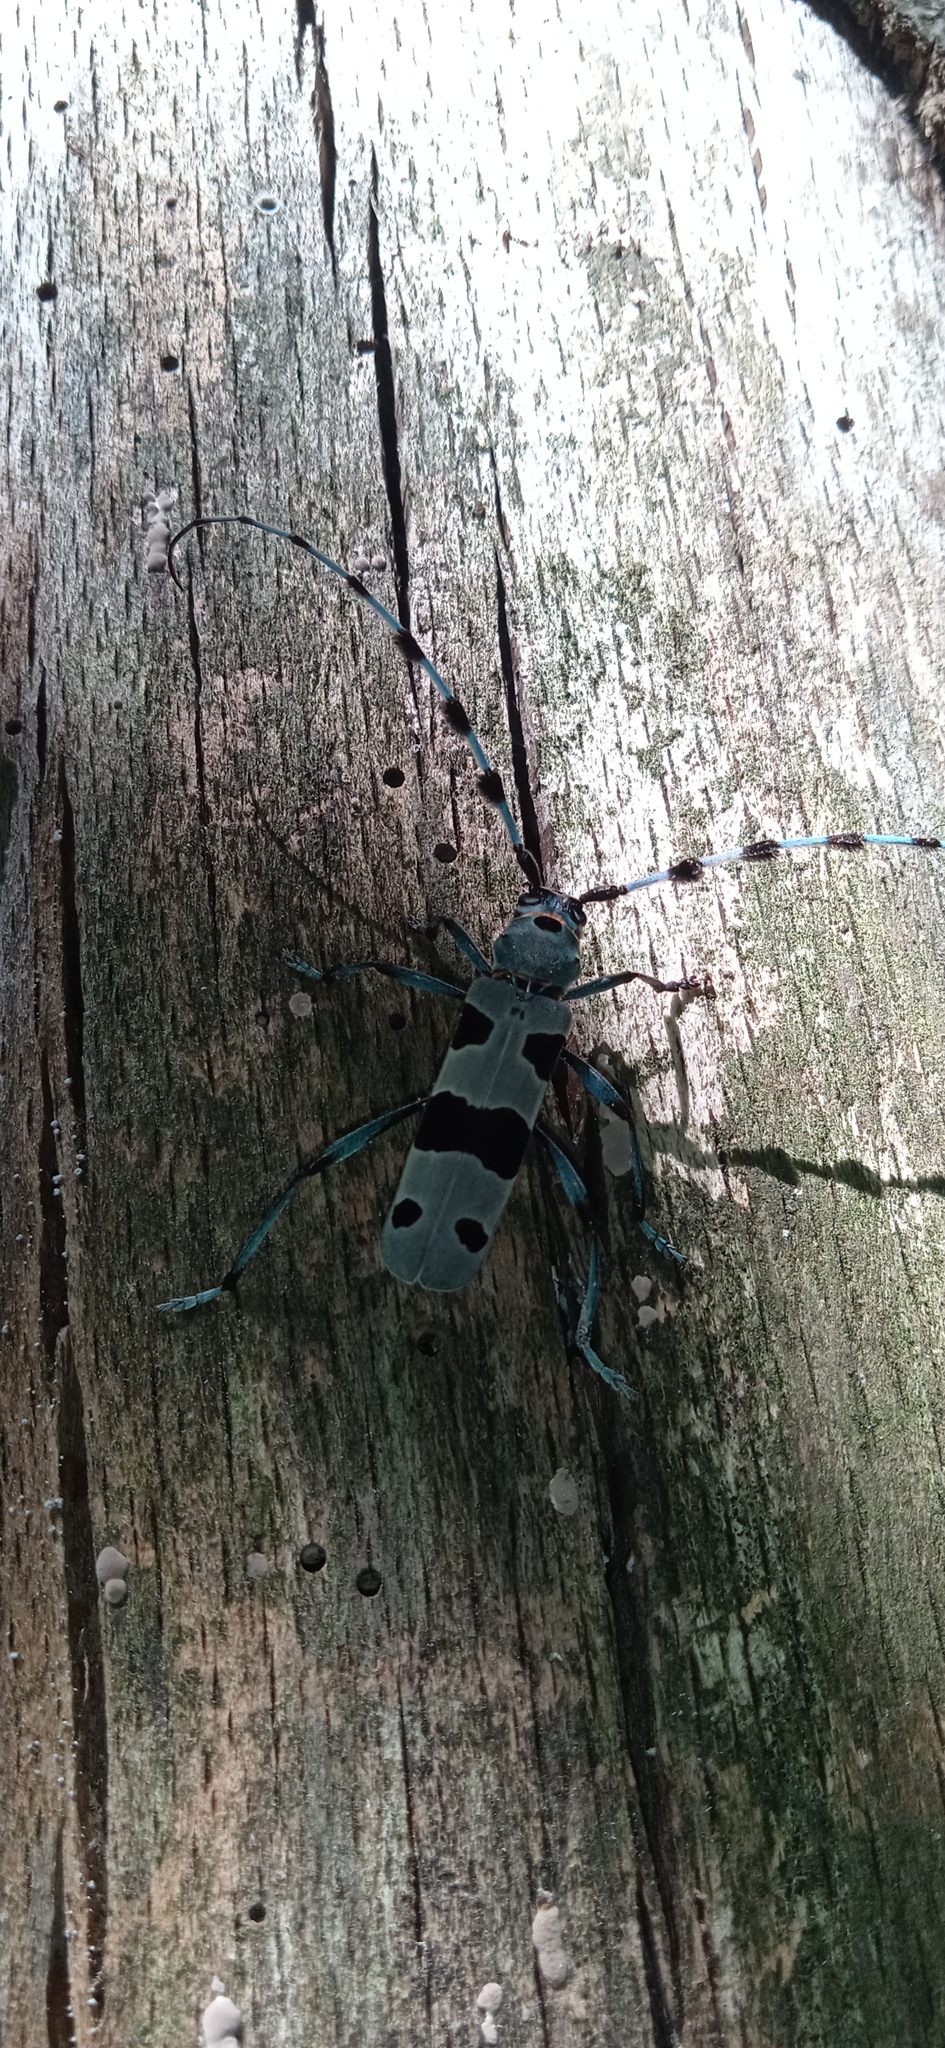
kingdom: Animalia
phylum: Arthropoda
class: Insecta
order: Coleoptera
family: Cerambycidae
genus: Rosalia
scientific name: Rosalia alpina
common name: Rosalia longicorn
